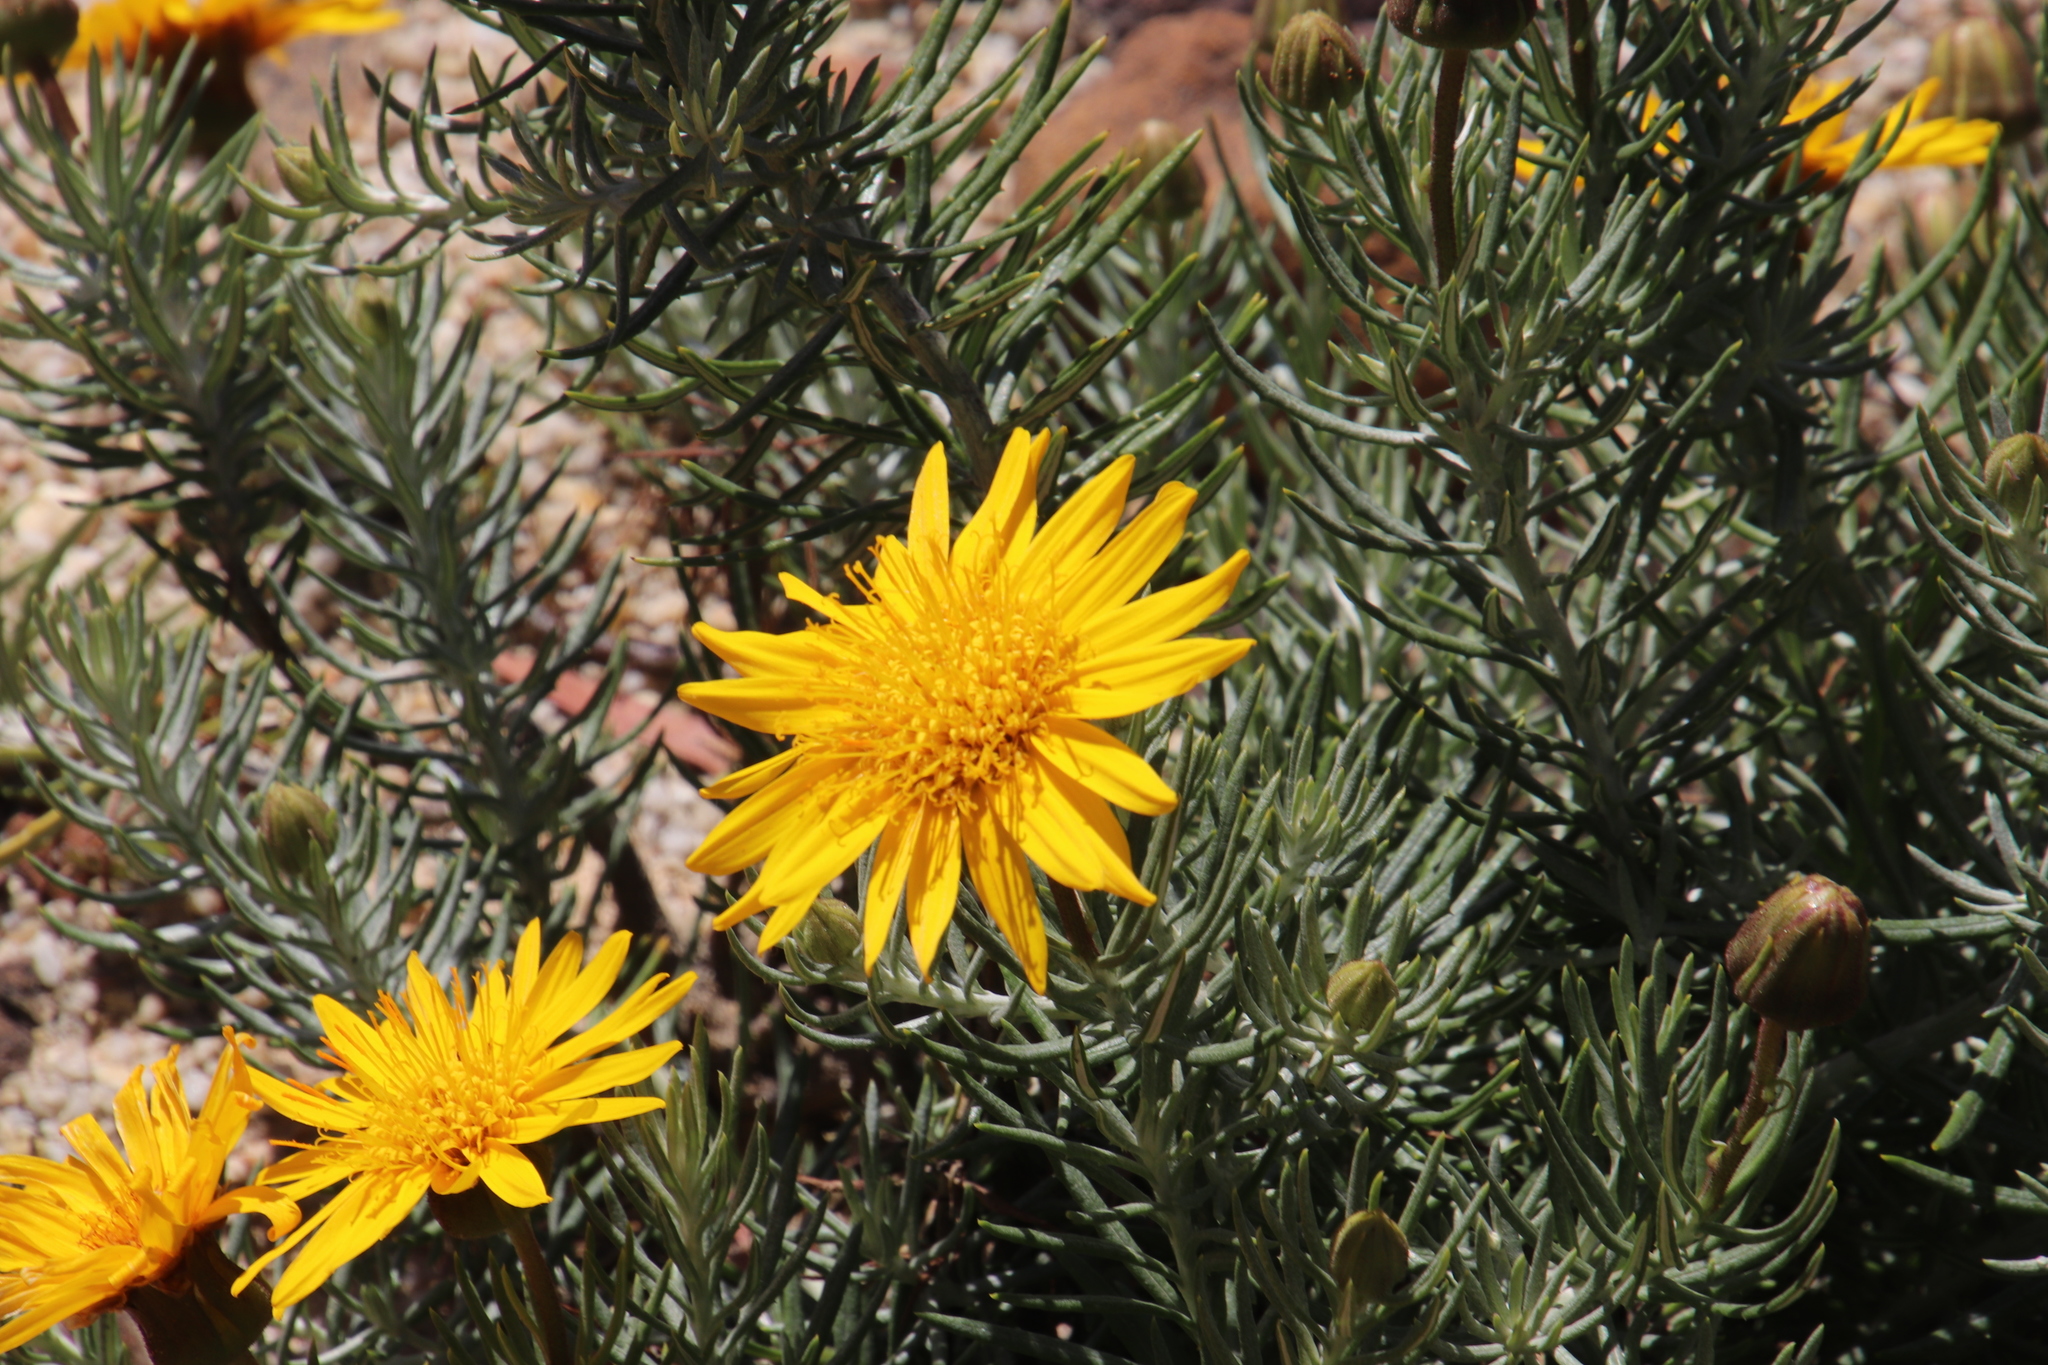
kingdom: Plantae
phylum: Tracheophyta
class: Magnoliopsida
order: Asterales
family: Asteraceae
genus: Heterolepis
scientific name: Heterolepis aliena
